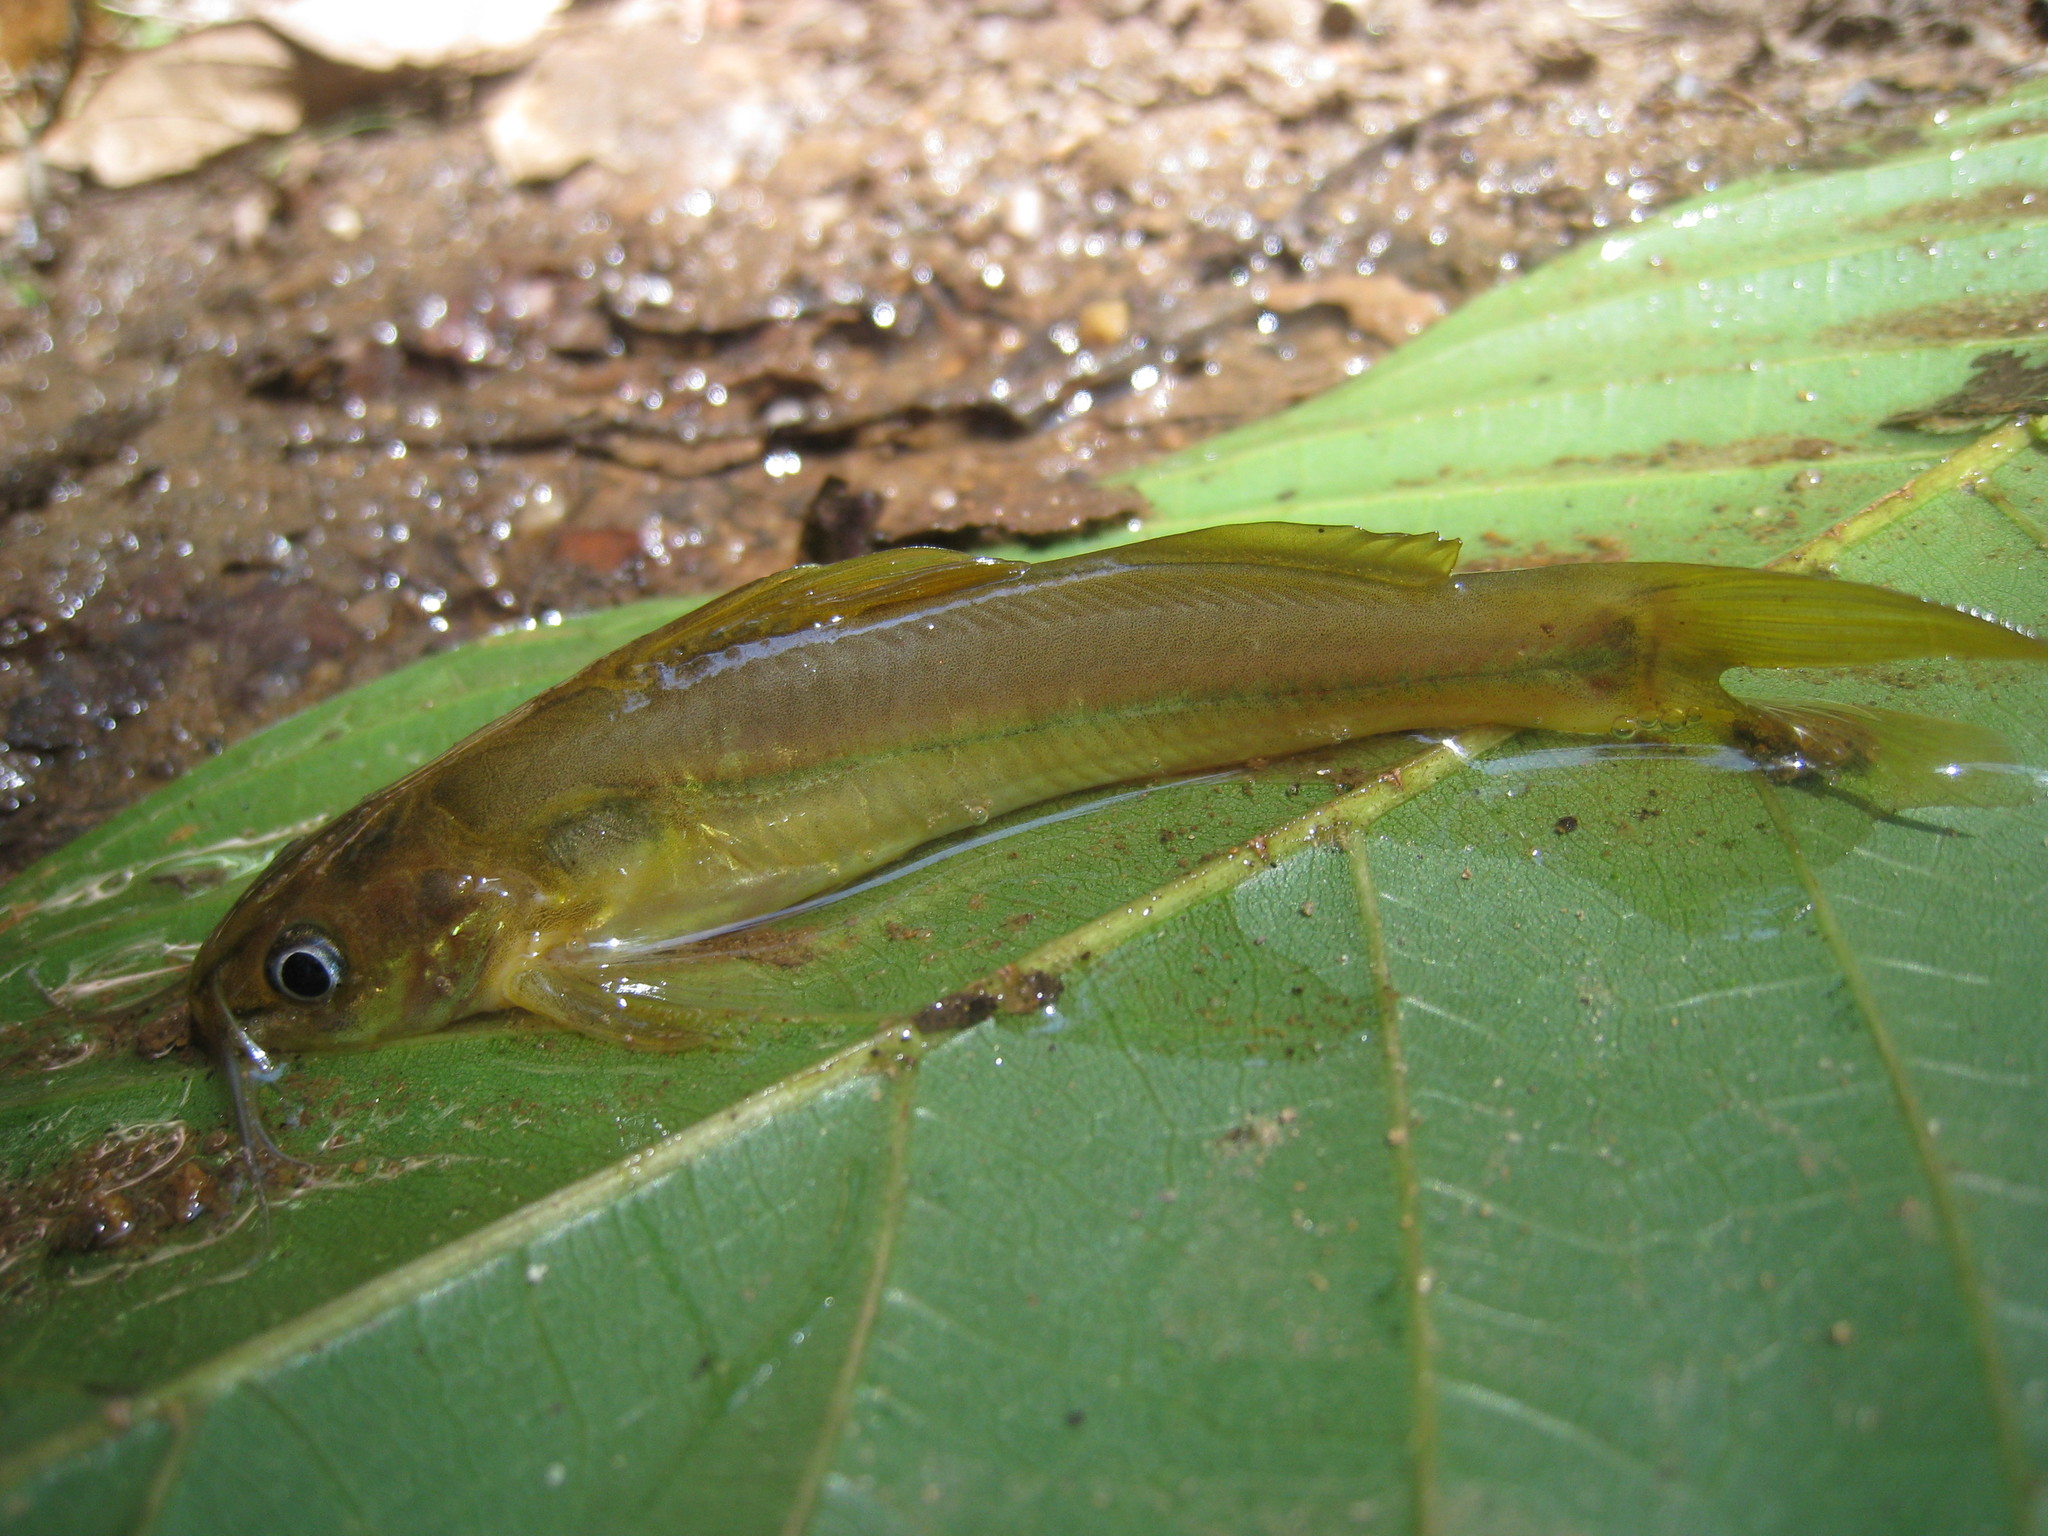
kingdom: Animalia
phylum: Chordata
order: Siluriformes
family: Bagridae
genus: Mystus
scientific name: Mystus montanus
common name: Wynaad mystus
